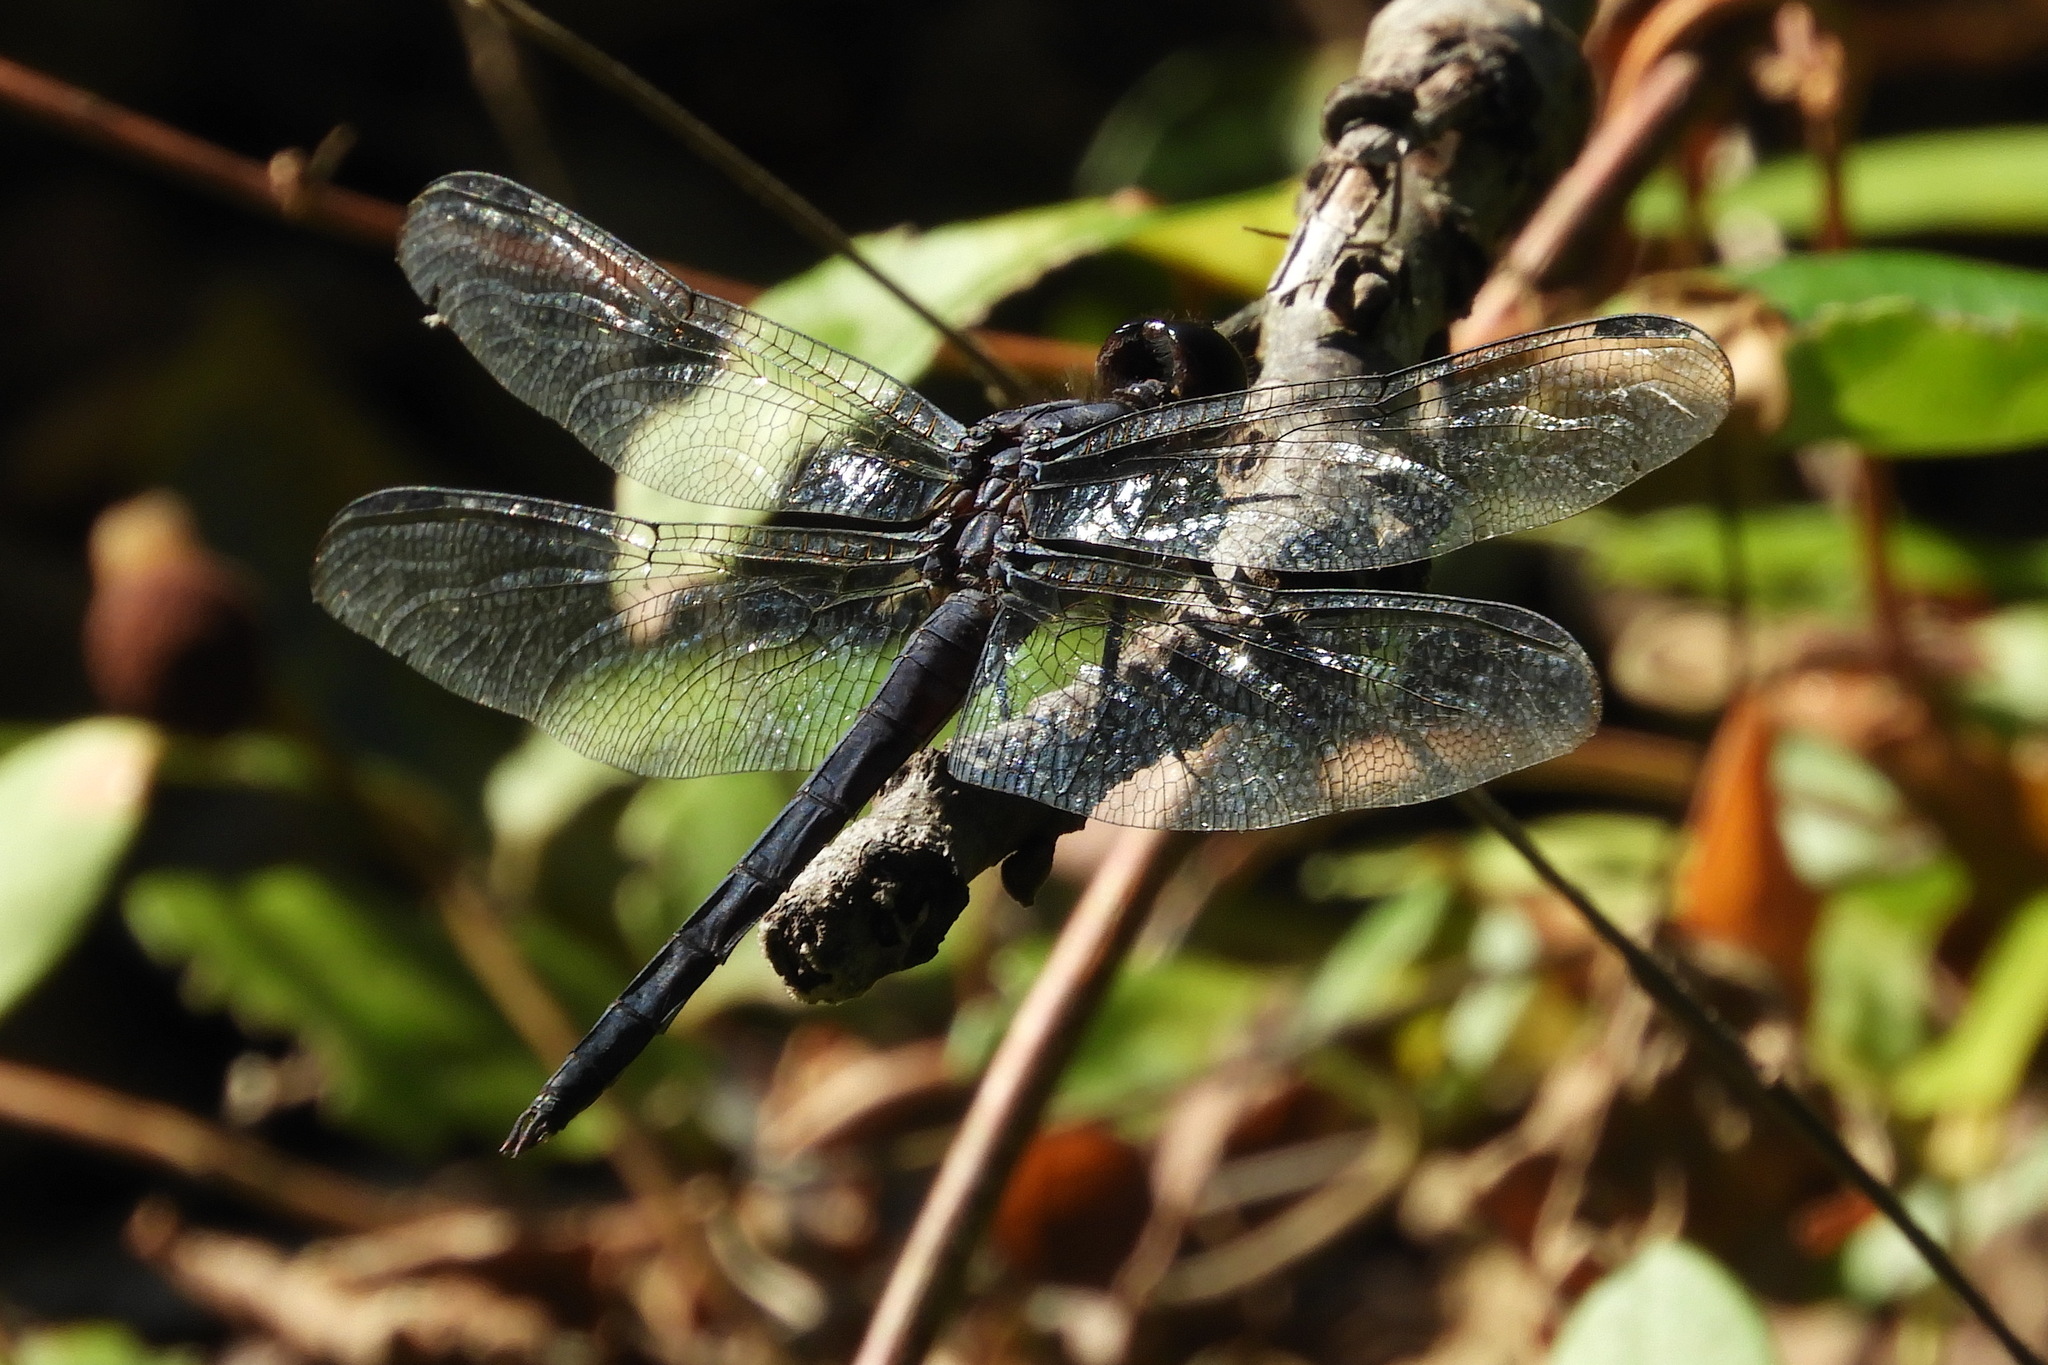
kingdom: Animalia
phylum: Arthropoda
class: Insecta
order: Odonata
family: Libellulidae
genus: Libellula
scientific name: Libellula incesta
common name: Slaty skimmer
